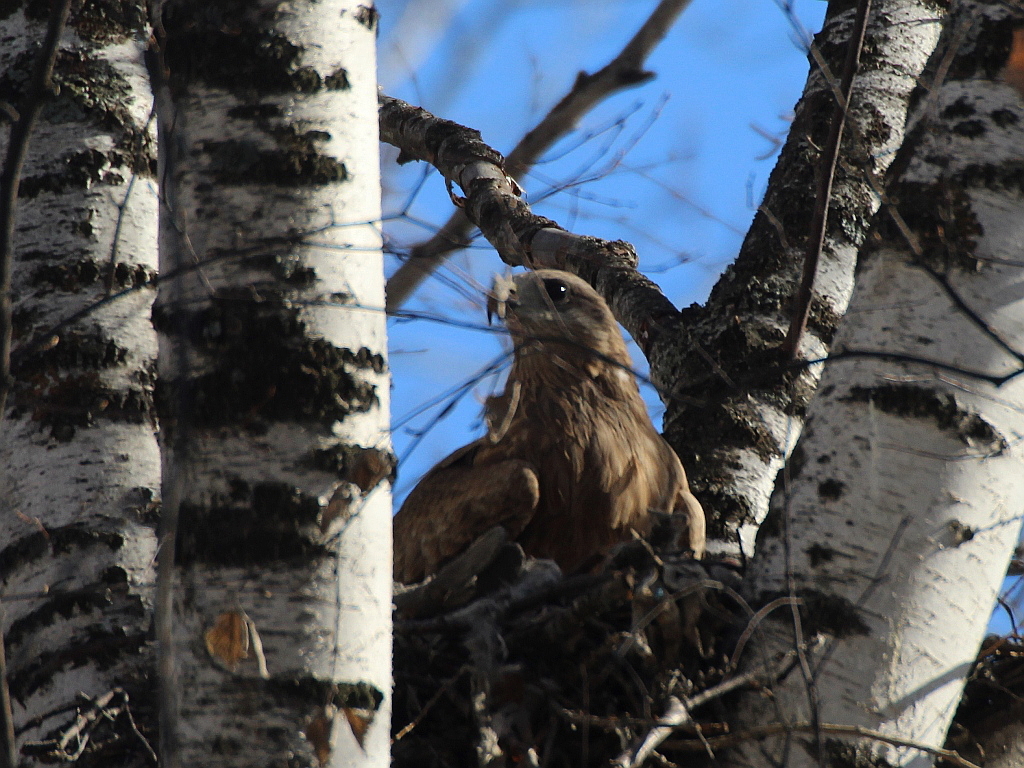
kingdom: Animalia
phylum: Chordata
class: Aves
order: Accipitriformes
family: Accipitridae
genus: Milvus
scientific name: Milvus migrans
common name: Black kite
